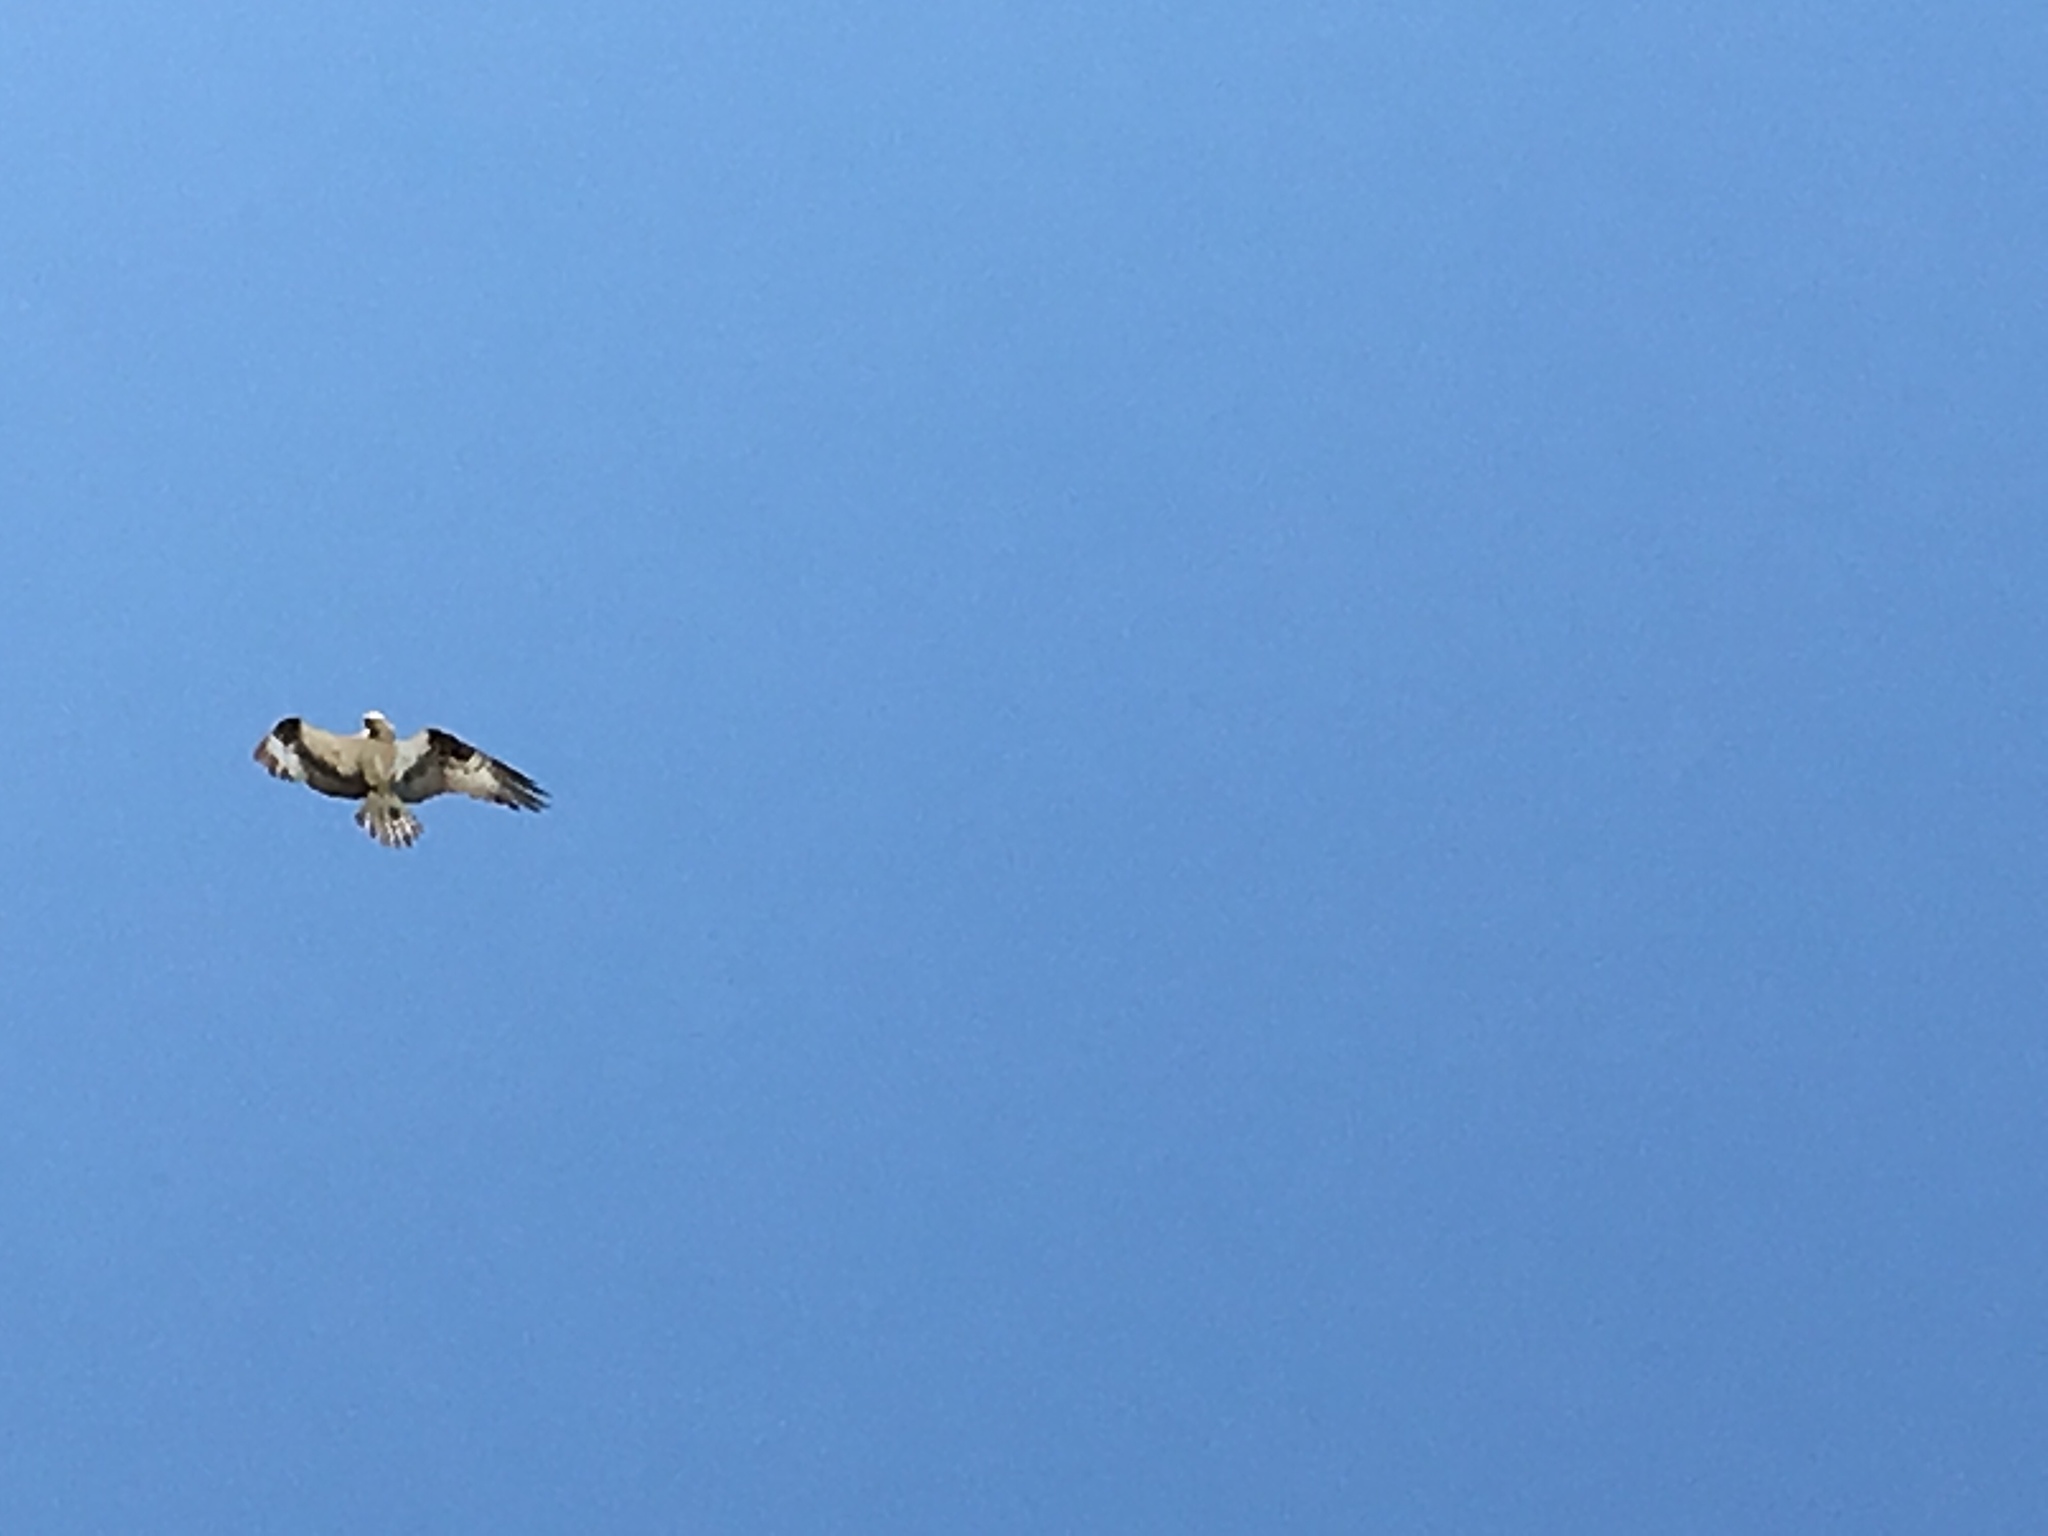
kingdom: Animalia
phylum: Chordata
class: Aves
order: Accipitriformes
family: Pandionidae
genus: Pandion
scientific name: Pandion haliaetus
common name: Osprey
